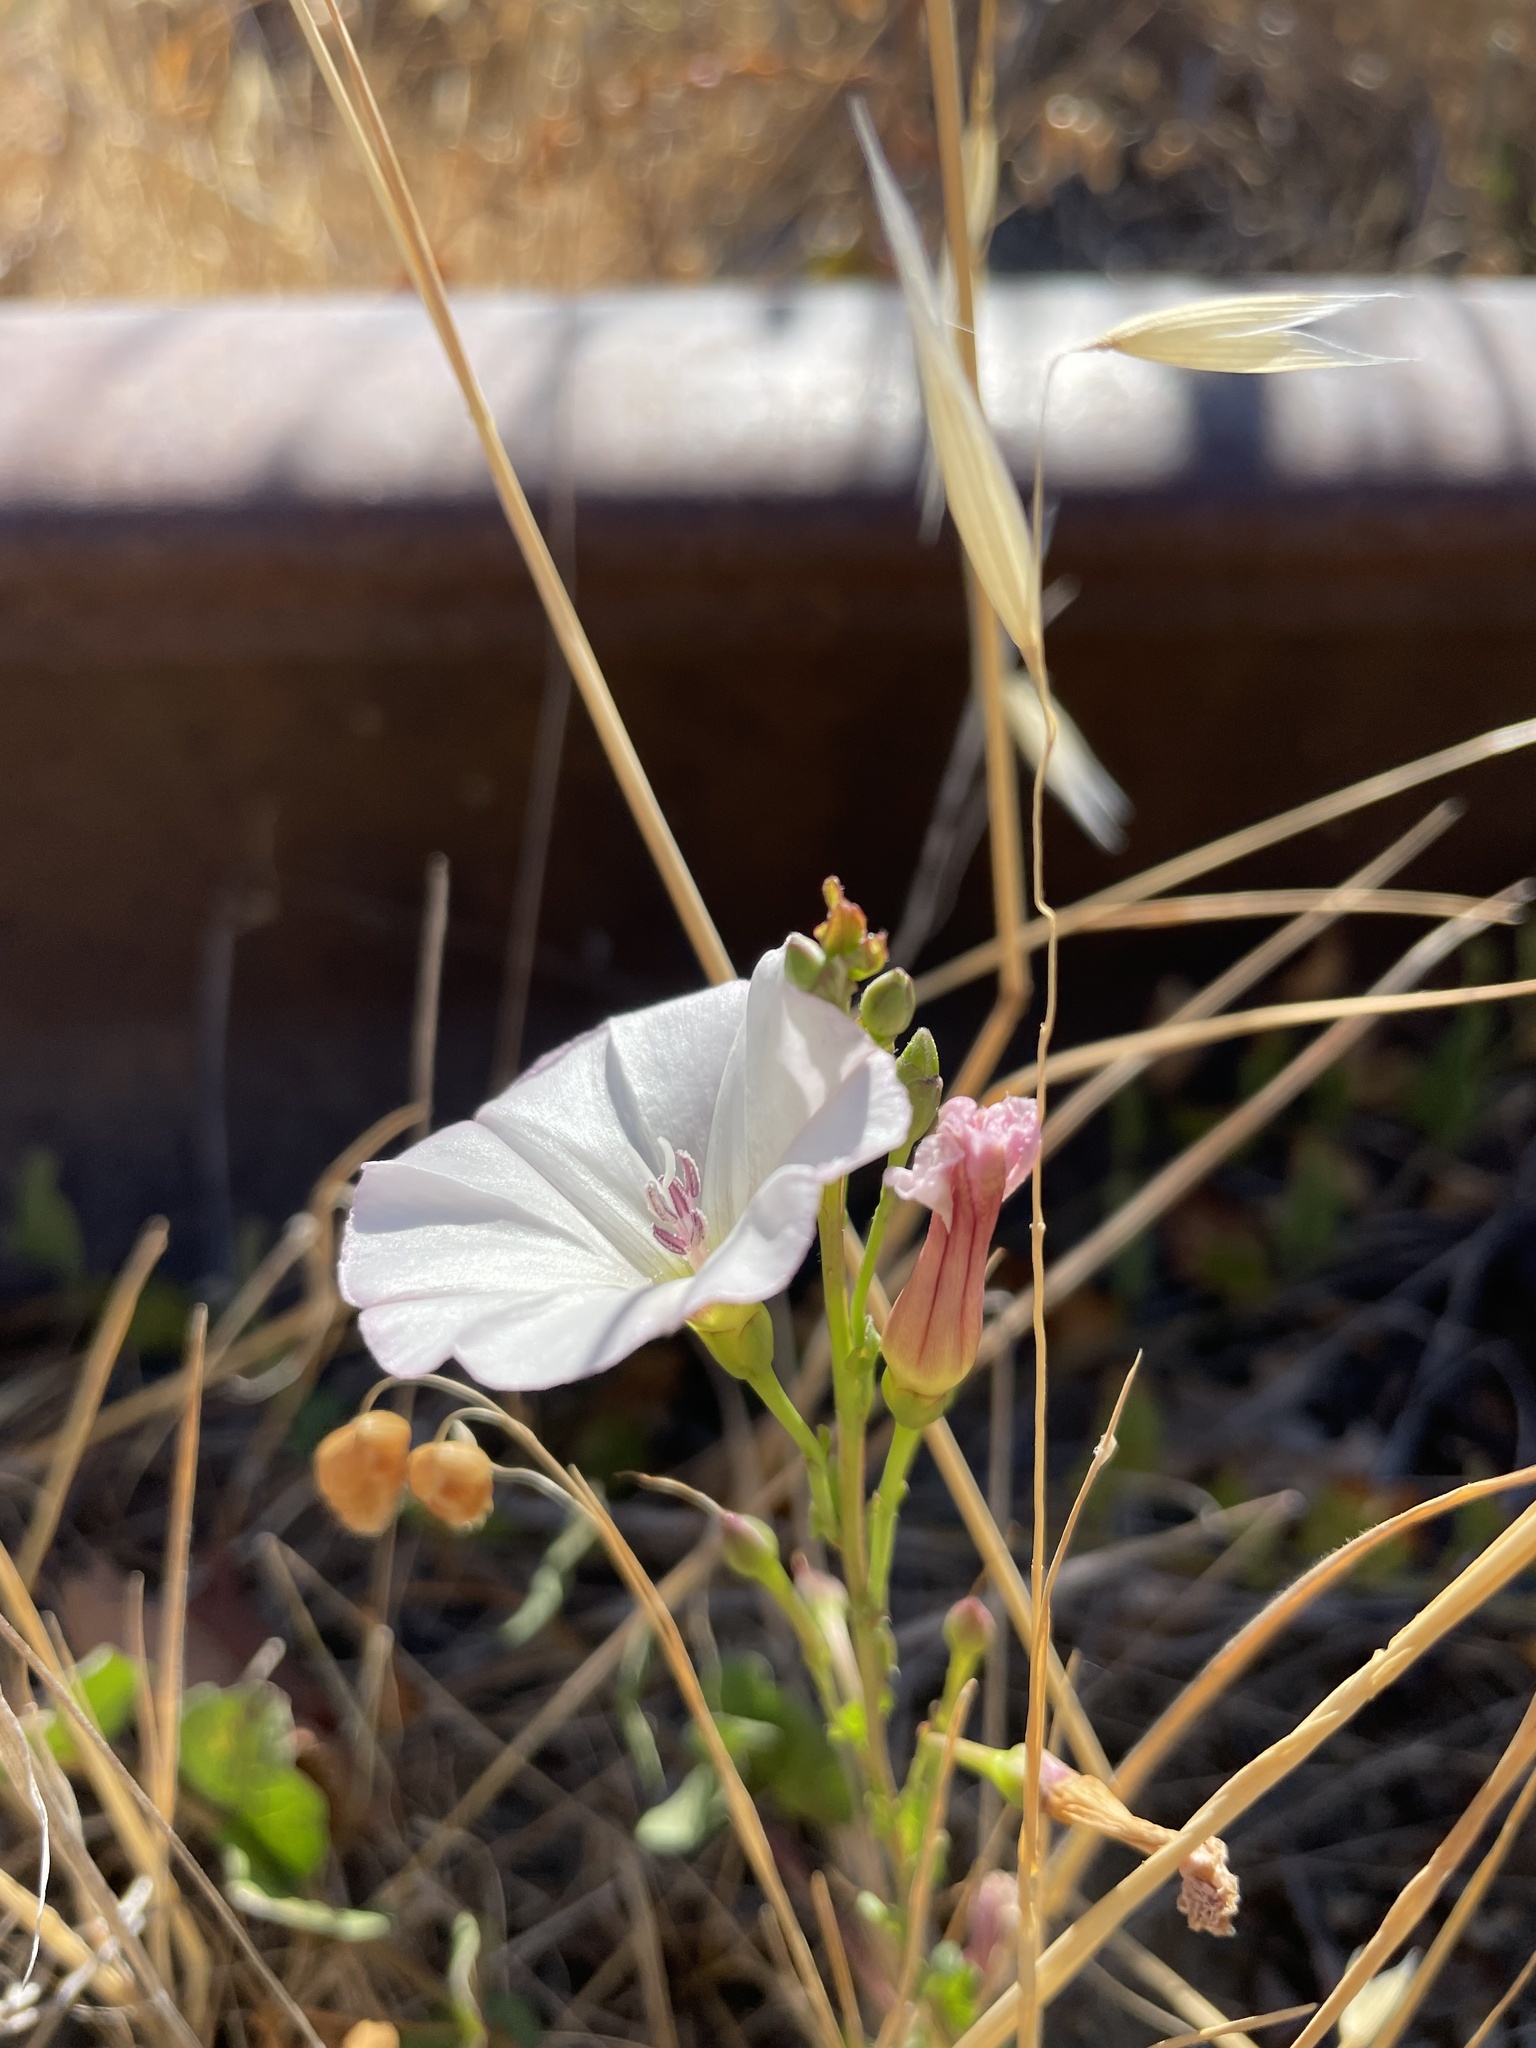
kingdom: Plantae
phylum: Tracheophyta
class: Magnoliopsida
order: Solanales
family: Convolvulaceae
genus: Convolvulus
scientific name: Convolvulus arvensis
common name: Field bindweed
